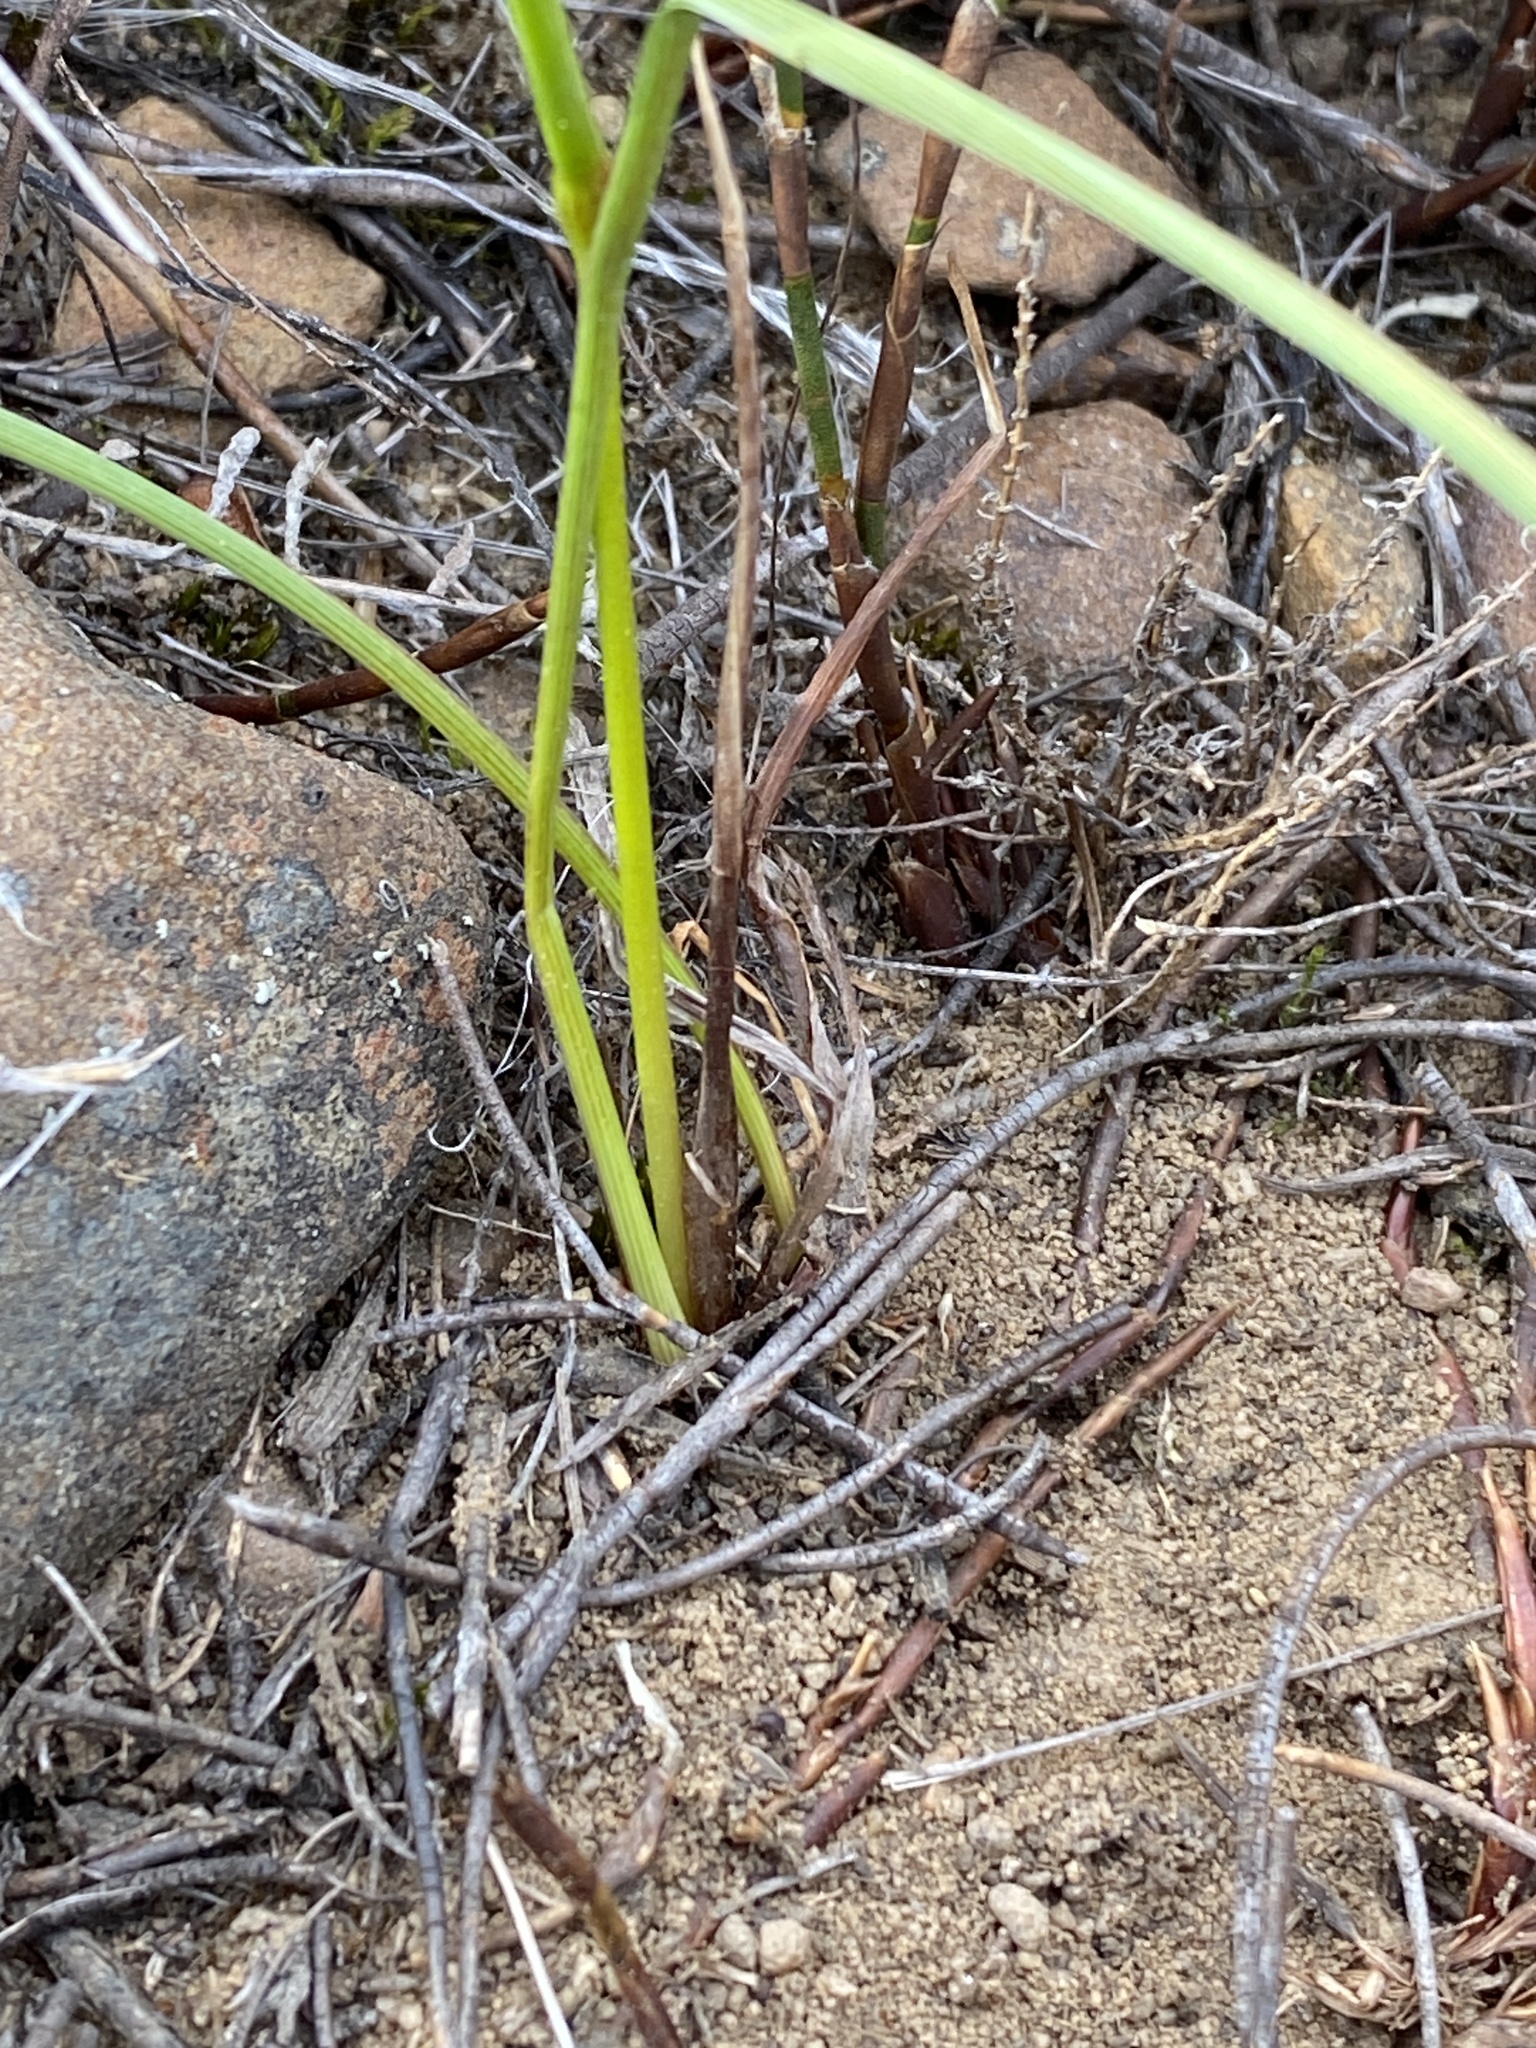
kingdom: Plantae
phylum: Tracheophyta
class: Liliopsida
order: Asparagales
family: Iridaceae
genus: Moraea
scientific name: Moraea inconspicua
